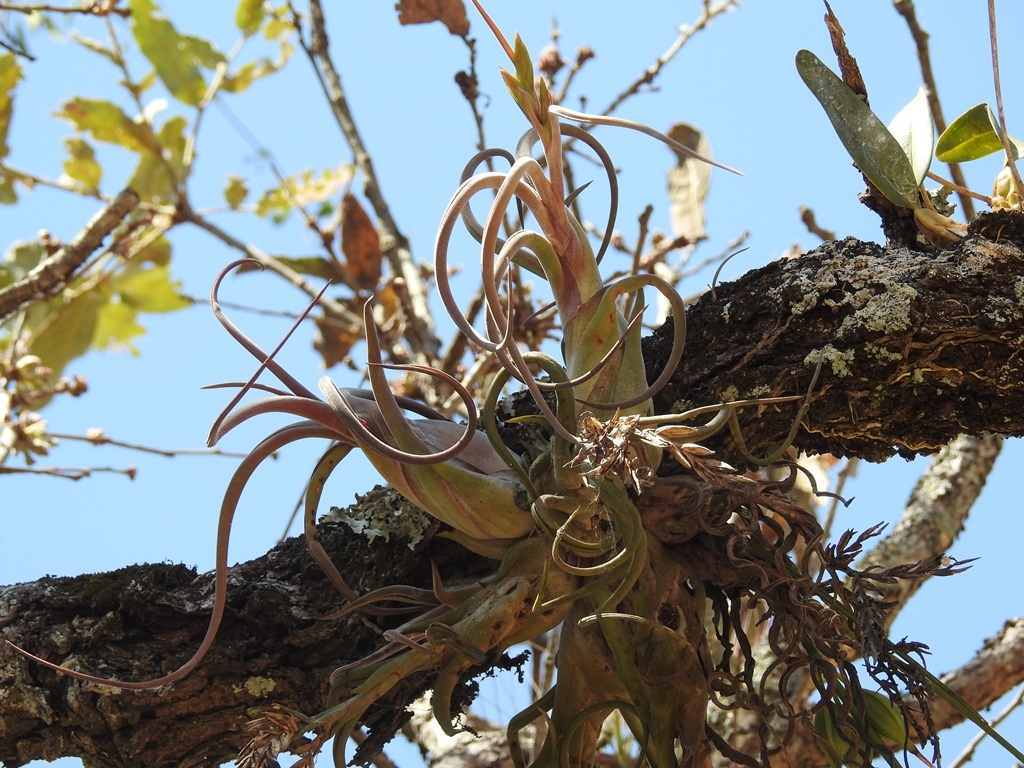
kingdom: Plantae
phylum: Tracheophyta
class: Liliopsida
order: Poales
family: Bromeliaceae
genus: Tillandsia
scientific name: Tillandsia caput-medusae
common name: Octopus plant
